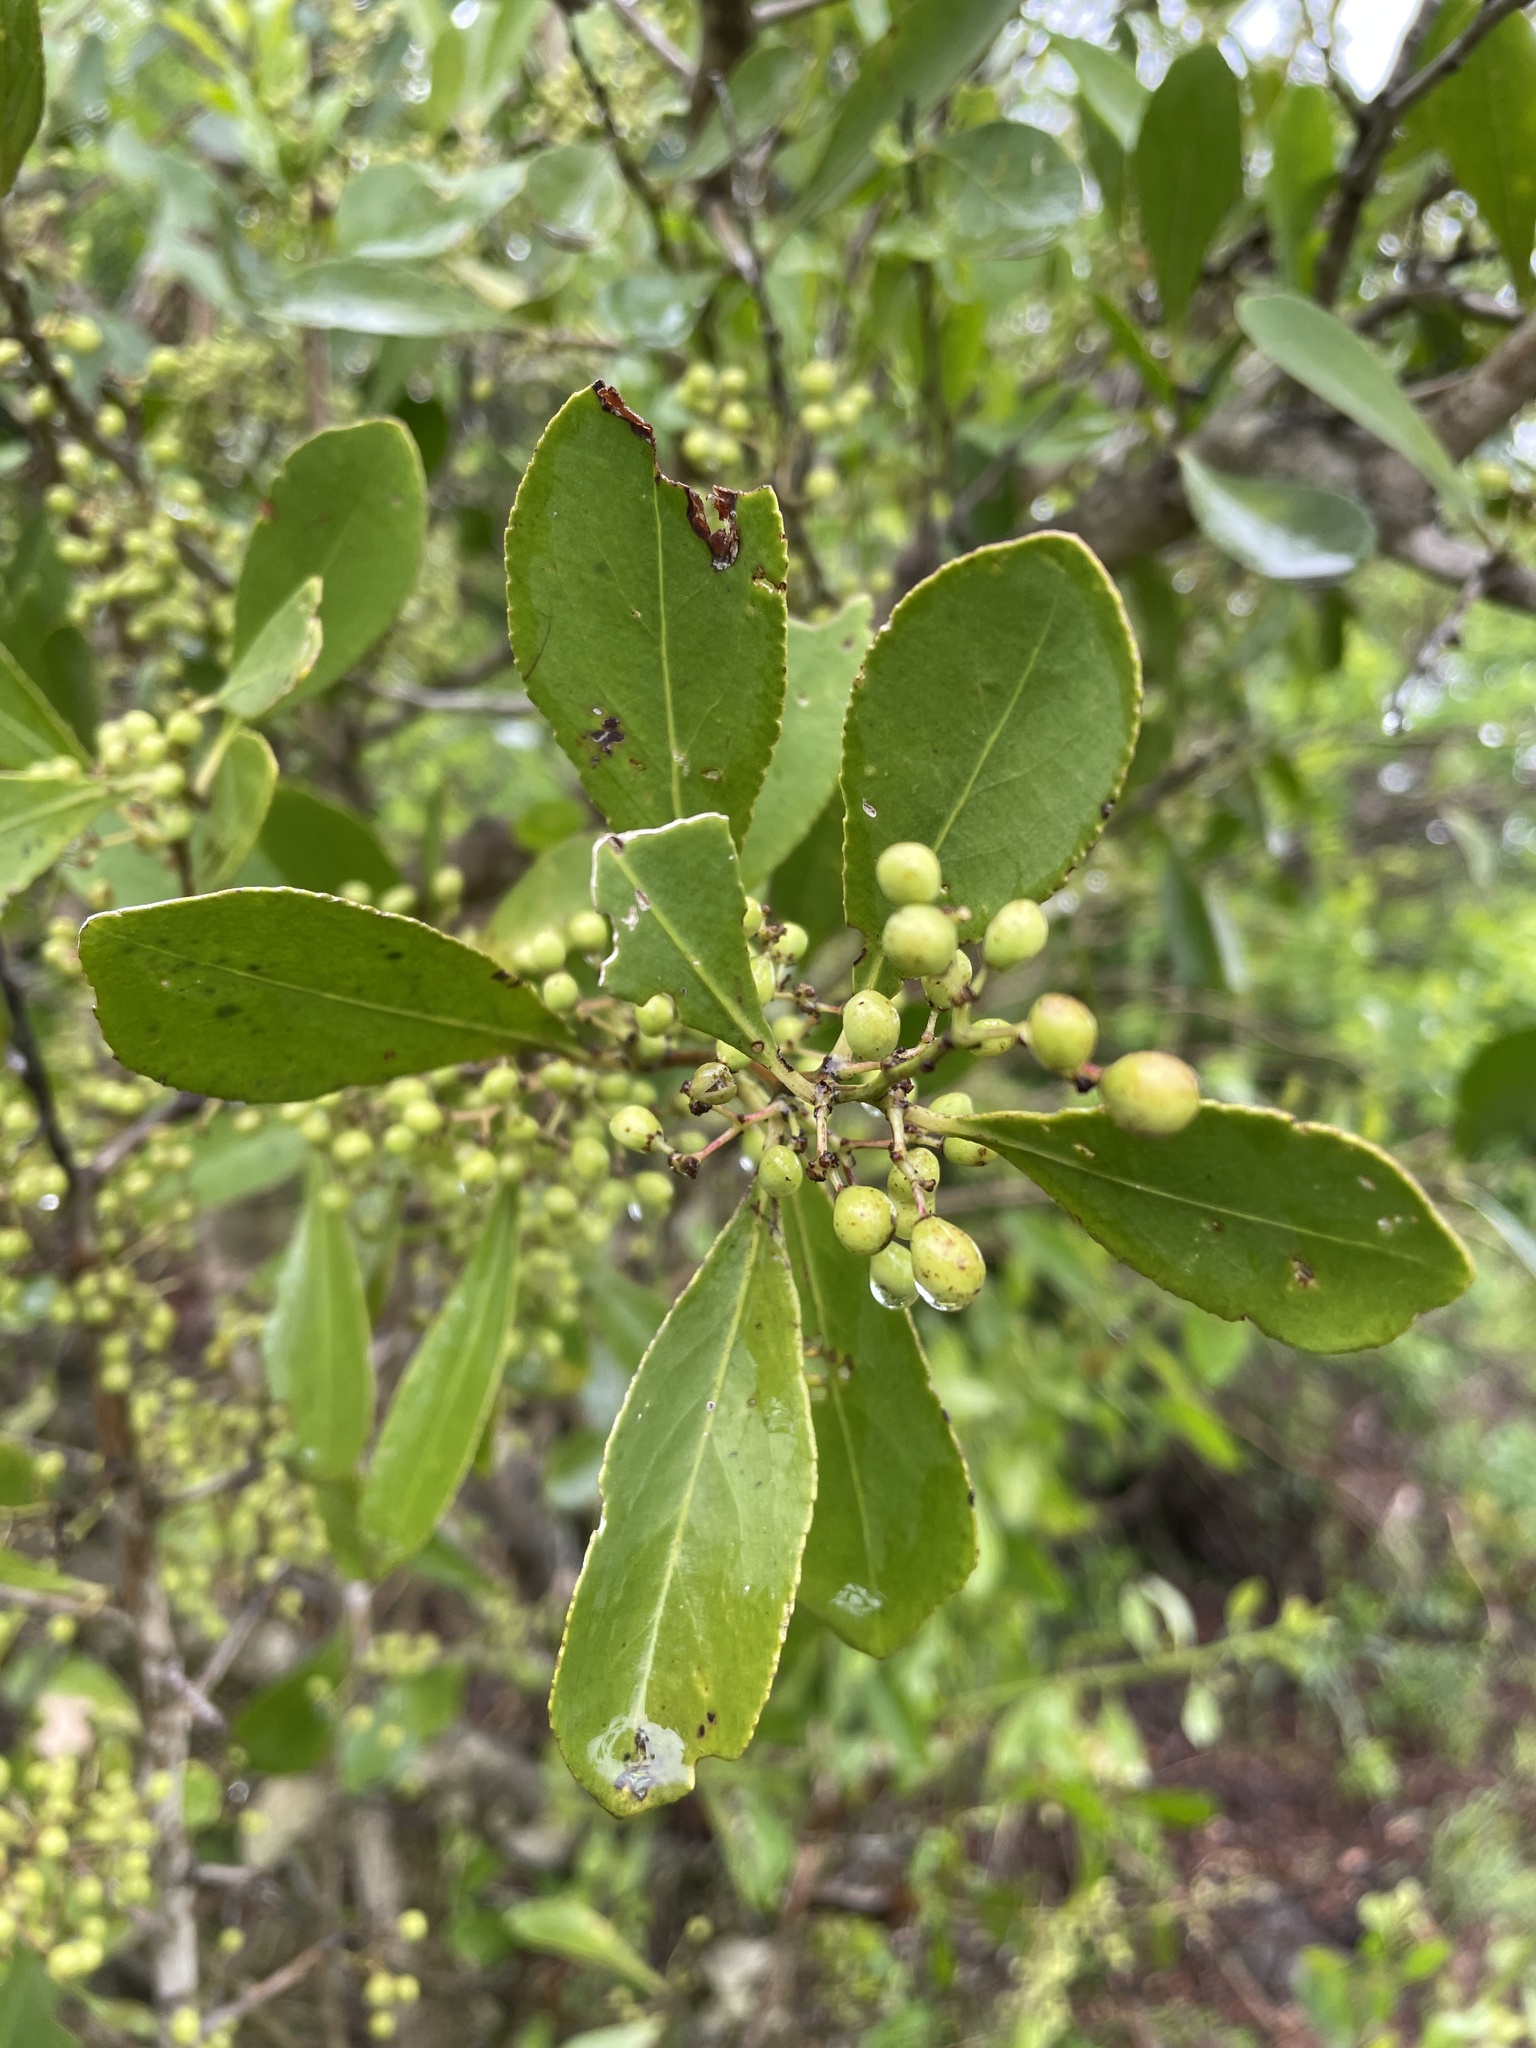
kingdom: Plantae
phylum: Tracheophyta
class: Magnoliopsida
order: Celastrales
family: Celastraceae
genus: Gymnosporia
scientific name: Gymnosporia senegalensis
